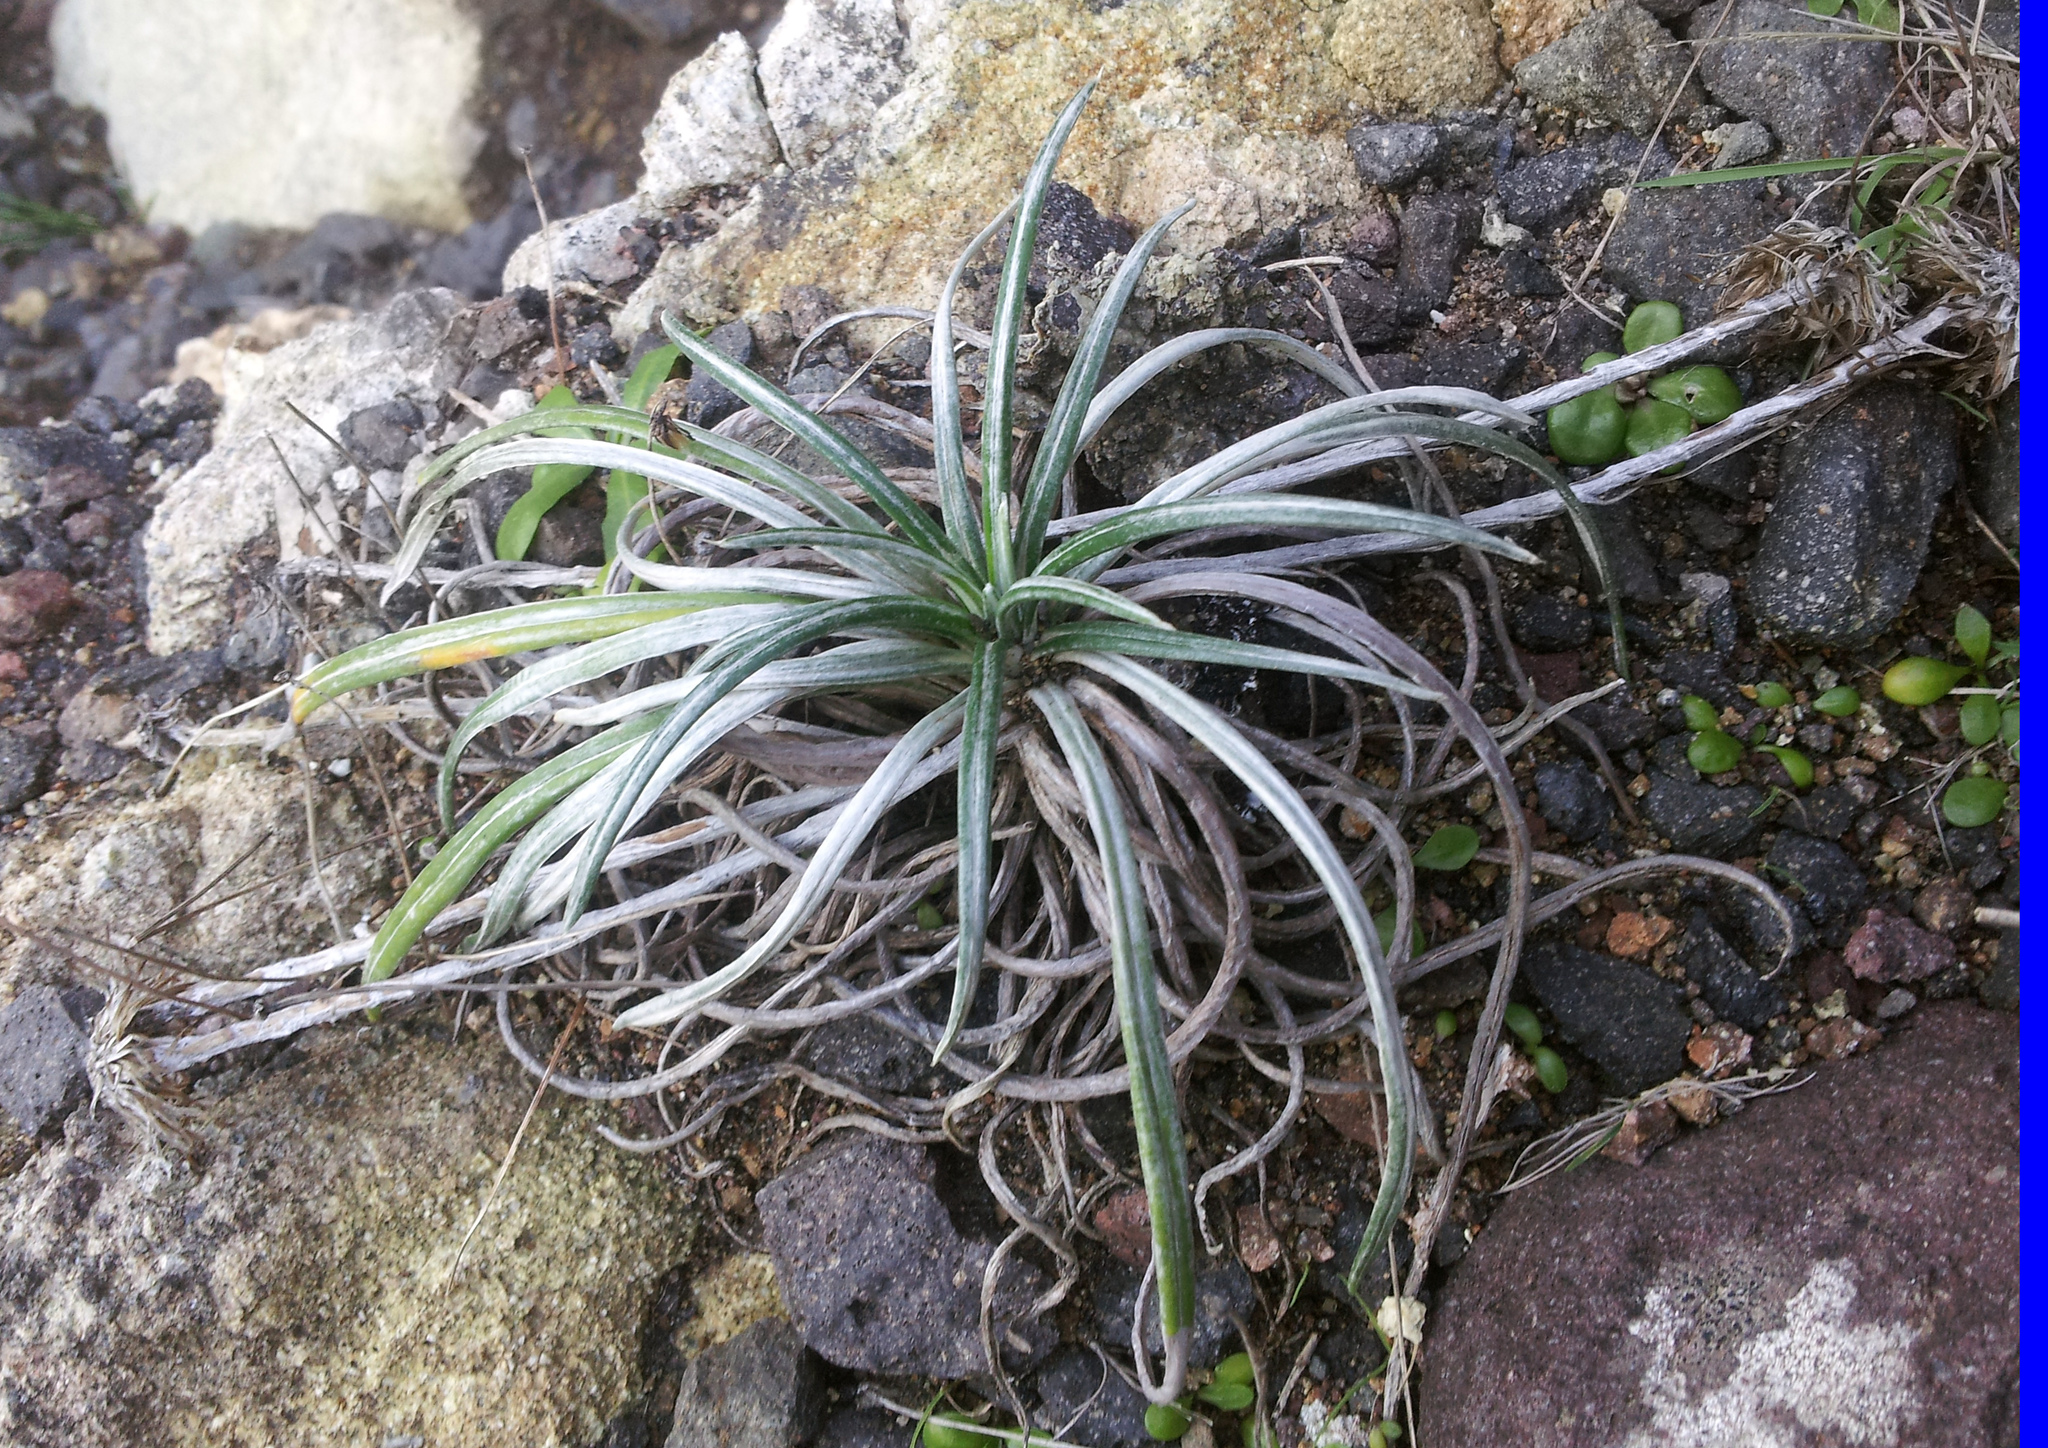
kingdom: Plantae
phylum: Tracheophyta
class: Magnoliopsida
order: Asterales
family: Asteraceae
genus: Celmisia
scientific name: Celmisia major
